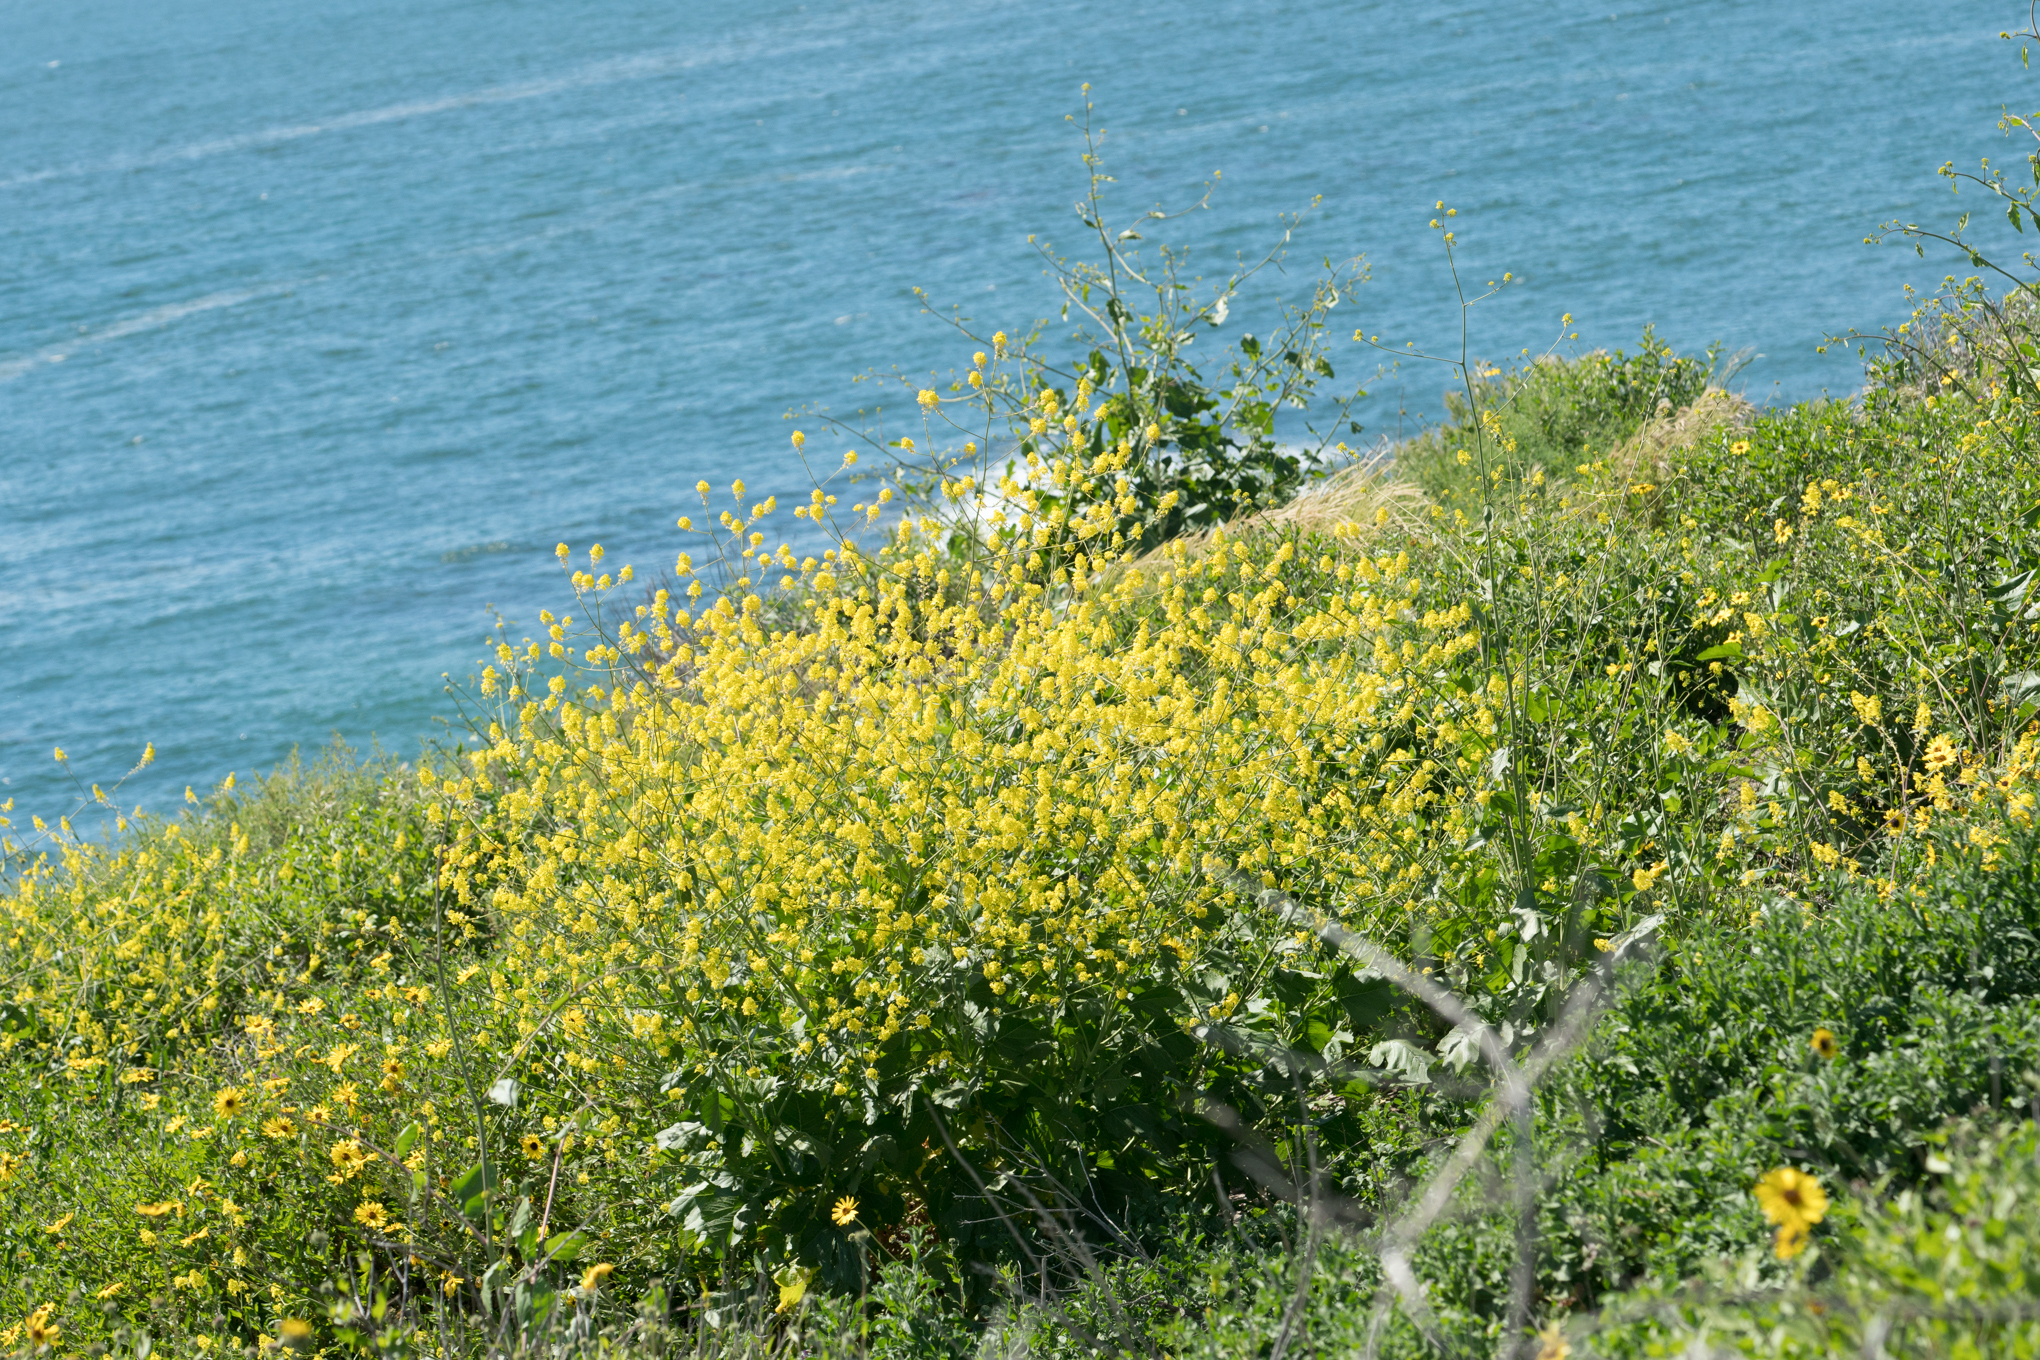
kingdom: Plantae
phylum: Tracheophyta
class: Magnoliopsida
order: Brassicales
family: Brassicaceae
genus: Brassica
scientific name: Brassica nigra
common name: Black mustard
